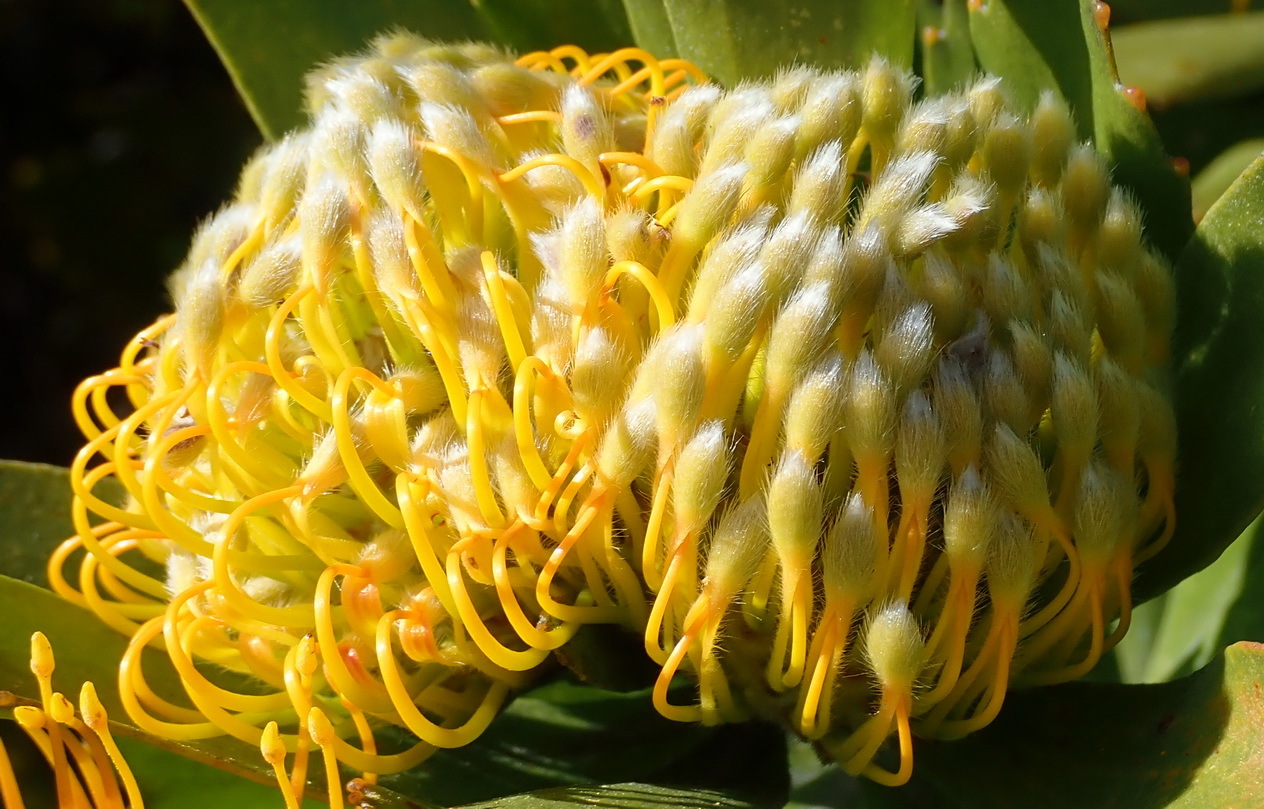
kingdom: Plantae
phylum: Tracheophyta
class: Magnoliopsida
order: Proteales
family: Proteaceae
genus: Leucospermum
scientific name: Leucospermum praecox
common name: Mossel bay pincushion
